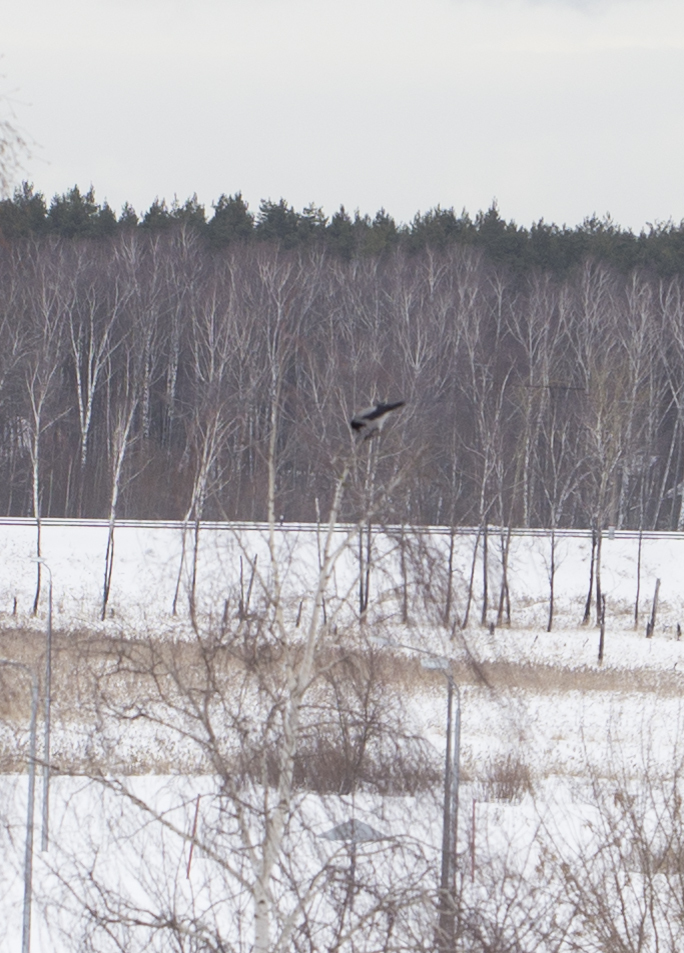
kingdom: Animalia
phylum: Chordata
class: Aves
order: Passeriformes
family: Corvidae
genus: Corvus
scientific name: Corvus cornix
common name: Hooded crow
